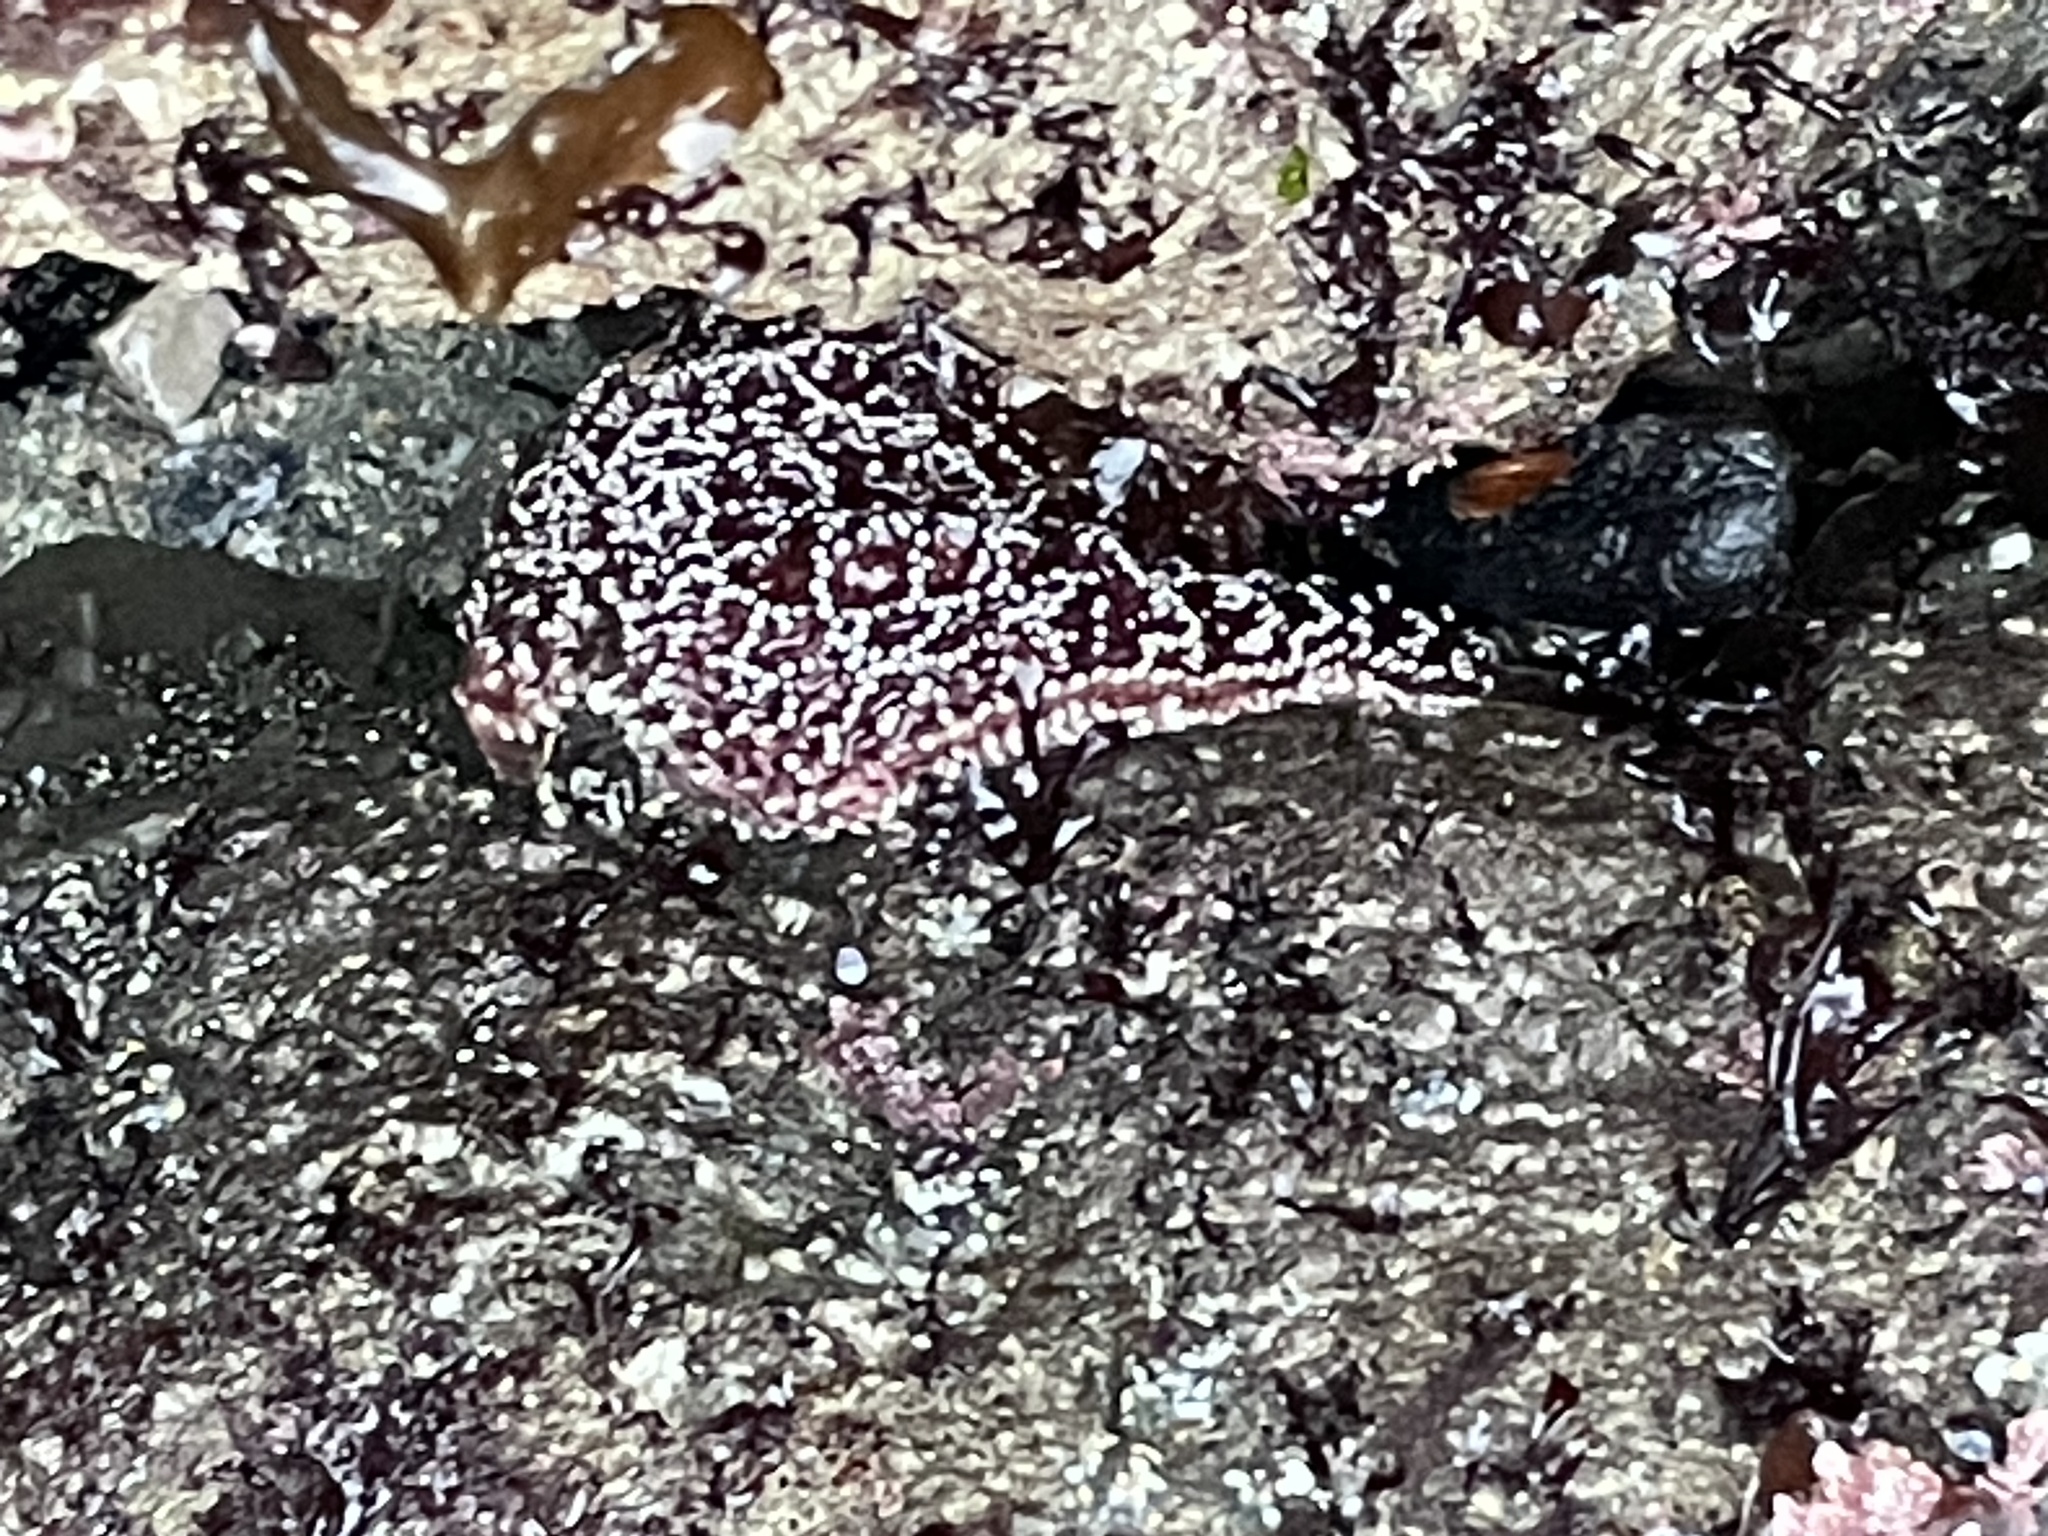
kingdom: Animalia
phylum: Echinodermata
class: Asteroidea
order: Forcipulatida
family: Asteriidae
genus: Pisaster
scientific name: Pisaster ochraceus
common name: Ochre stars
